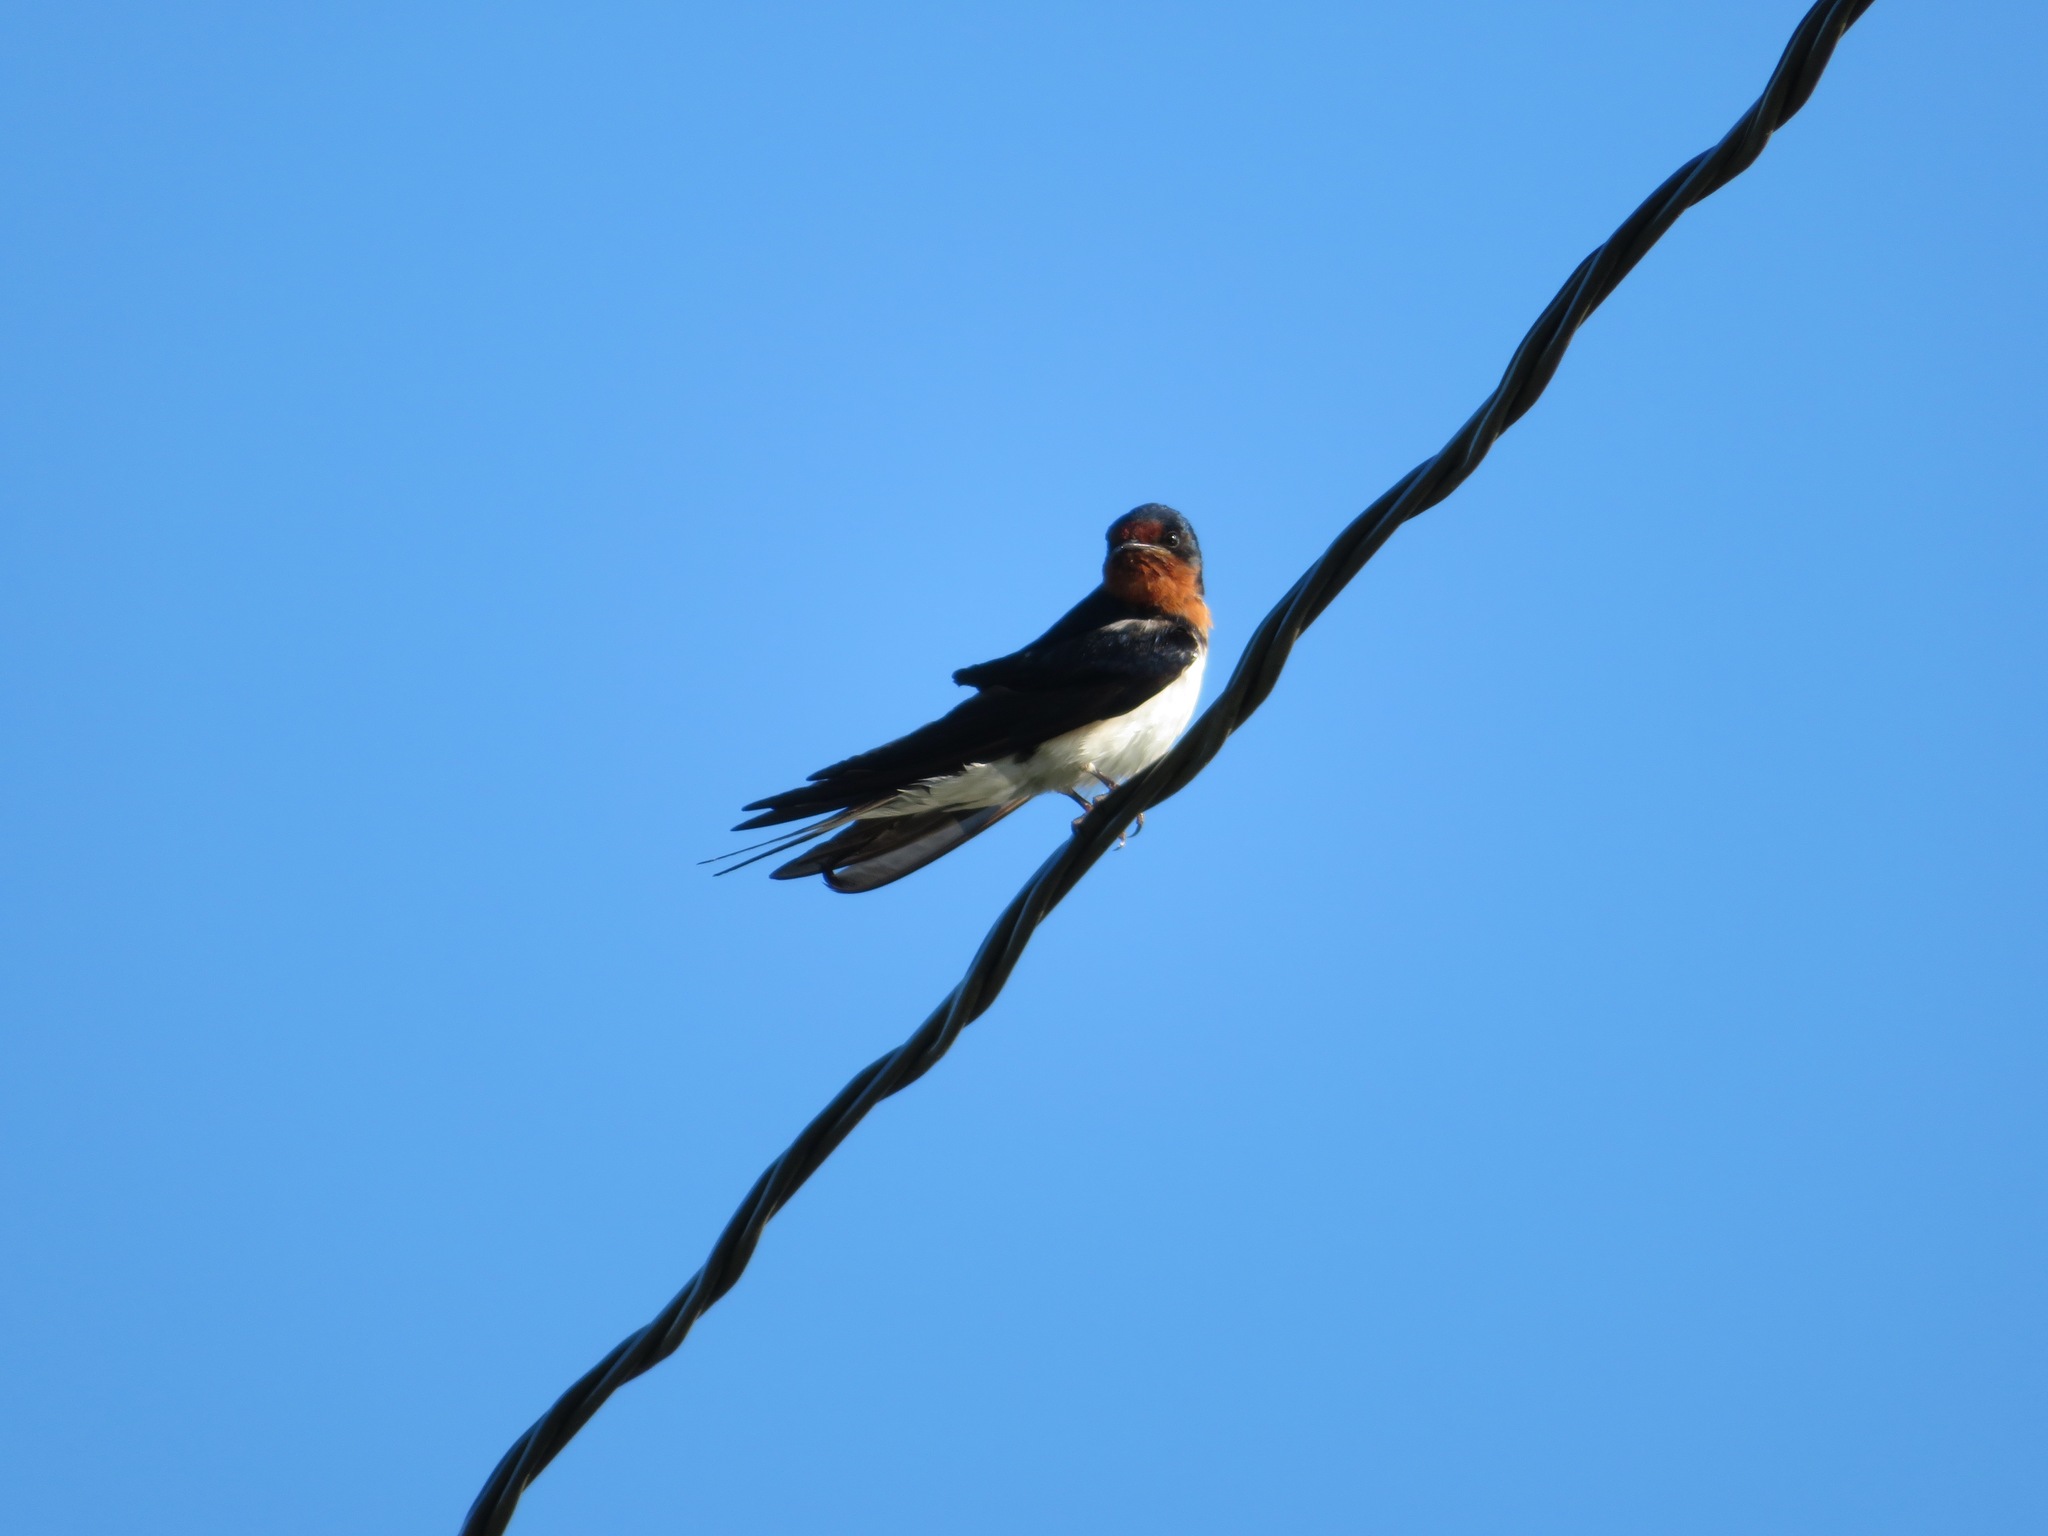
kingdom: Animalia
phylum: Chordata
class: Aves
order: Passeriformes
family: Hirundinidae
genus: Hirundo
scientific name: Hirundo rustica
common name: Barn swallow
